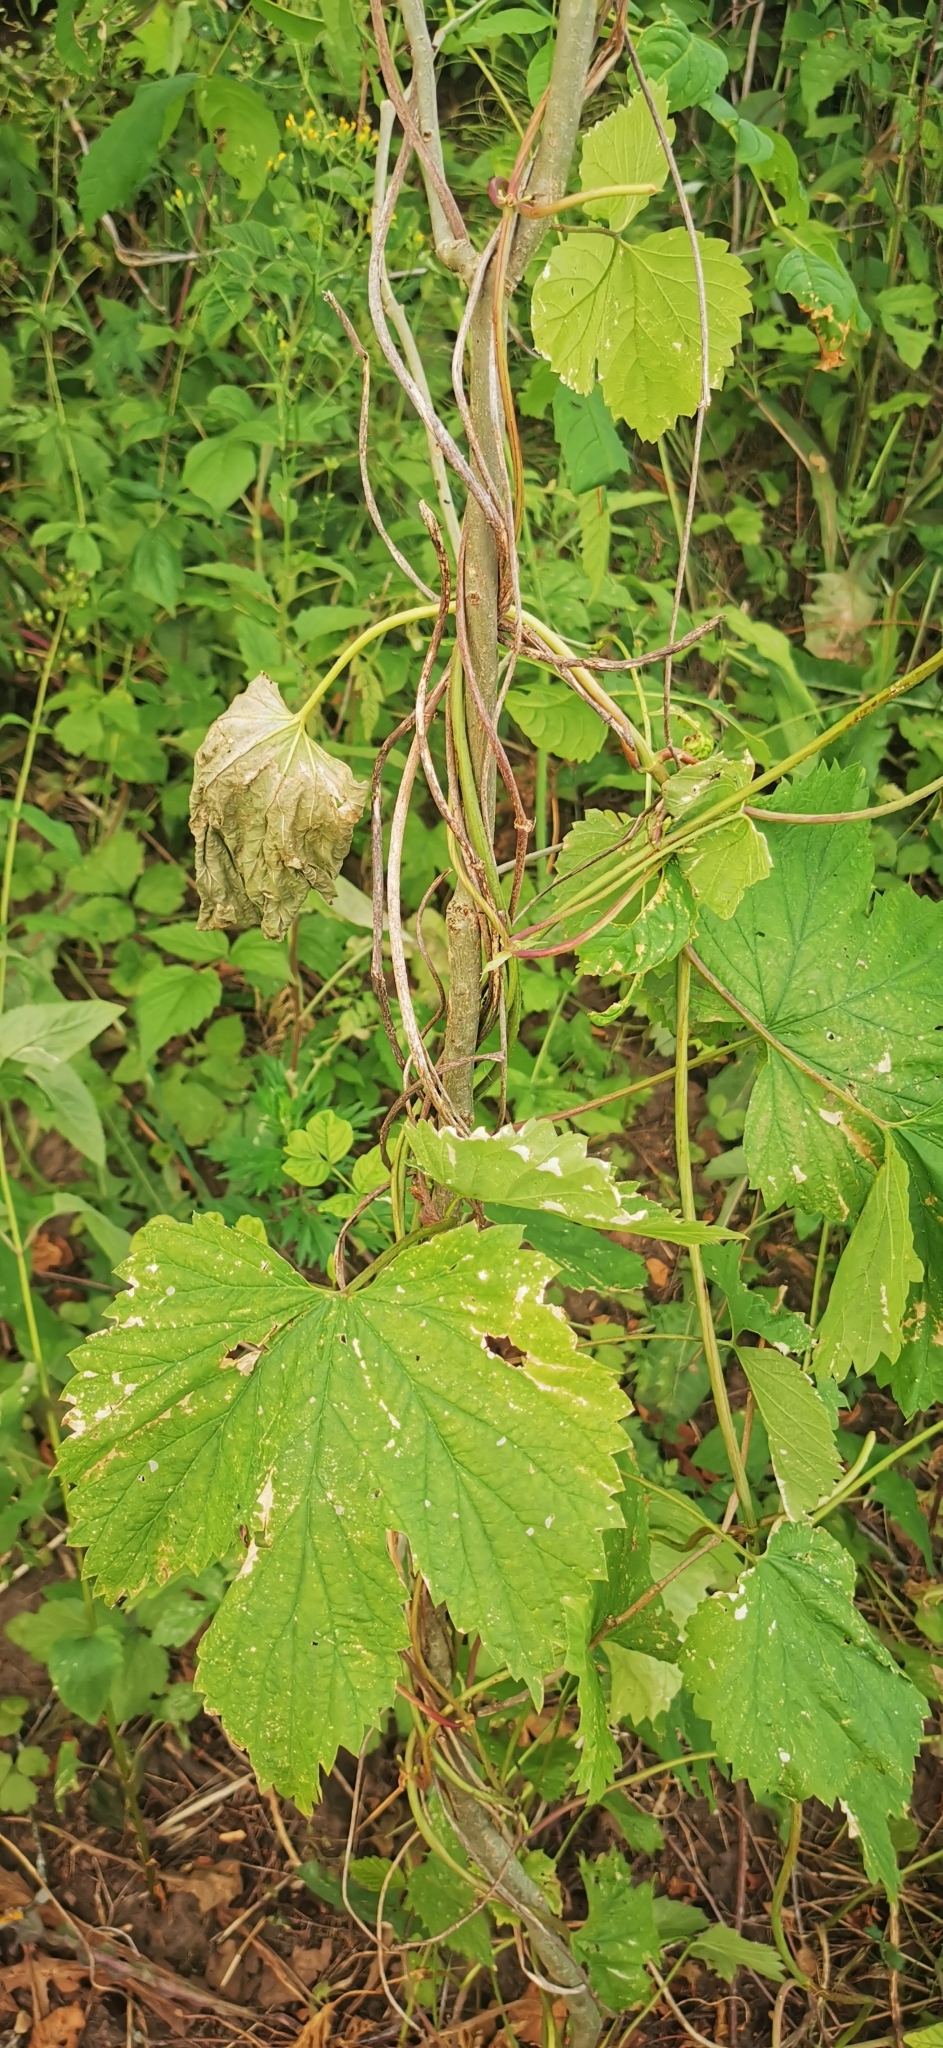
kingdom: Plantae
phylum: Tracheophyta
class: Magnoliopsida
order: Rosales
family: Cannabaceae
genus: Humulus
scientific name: Humulus lupulus
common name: Hop
